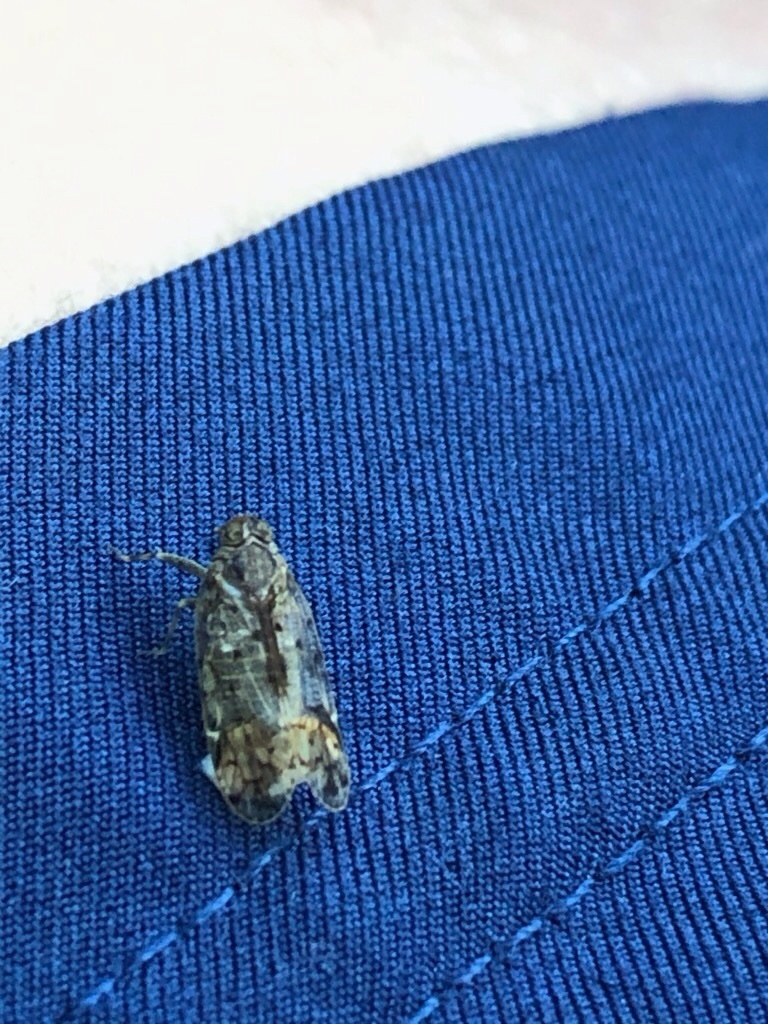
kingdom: Animalia
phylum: Arthropoda
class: Insecta
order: Hemiptera
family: Cixiidae
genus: Melanoliarus
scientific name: Melanoliarus placitus
